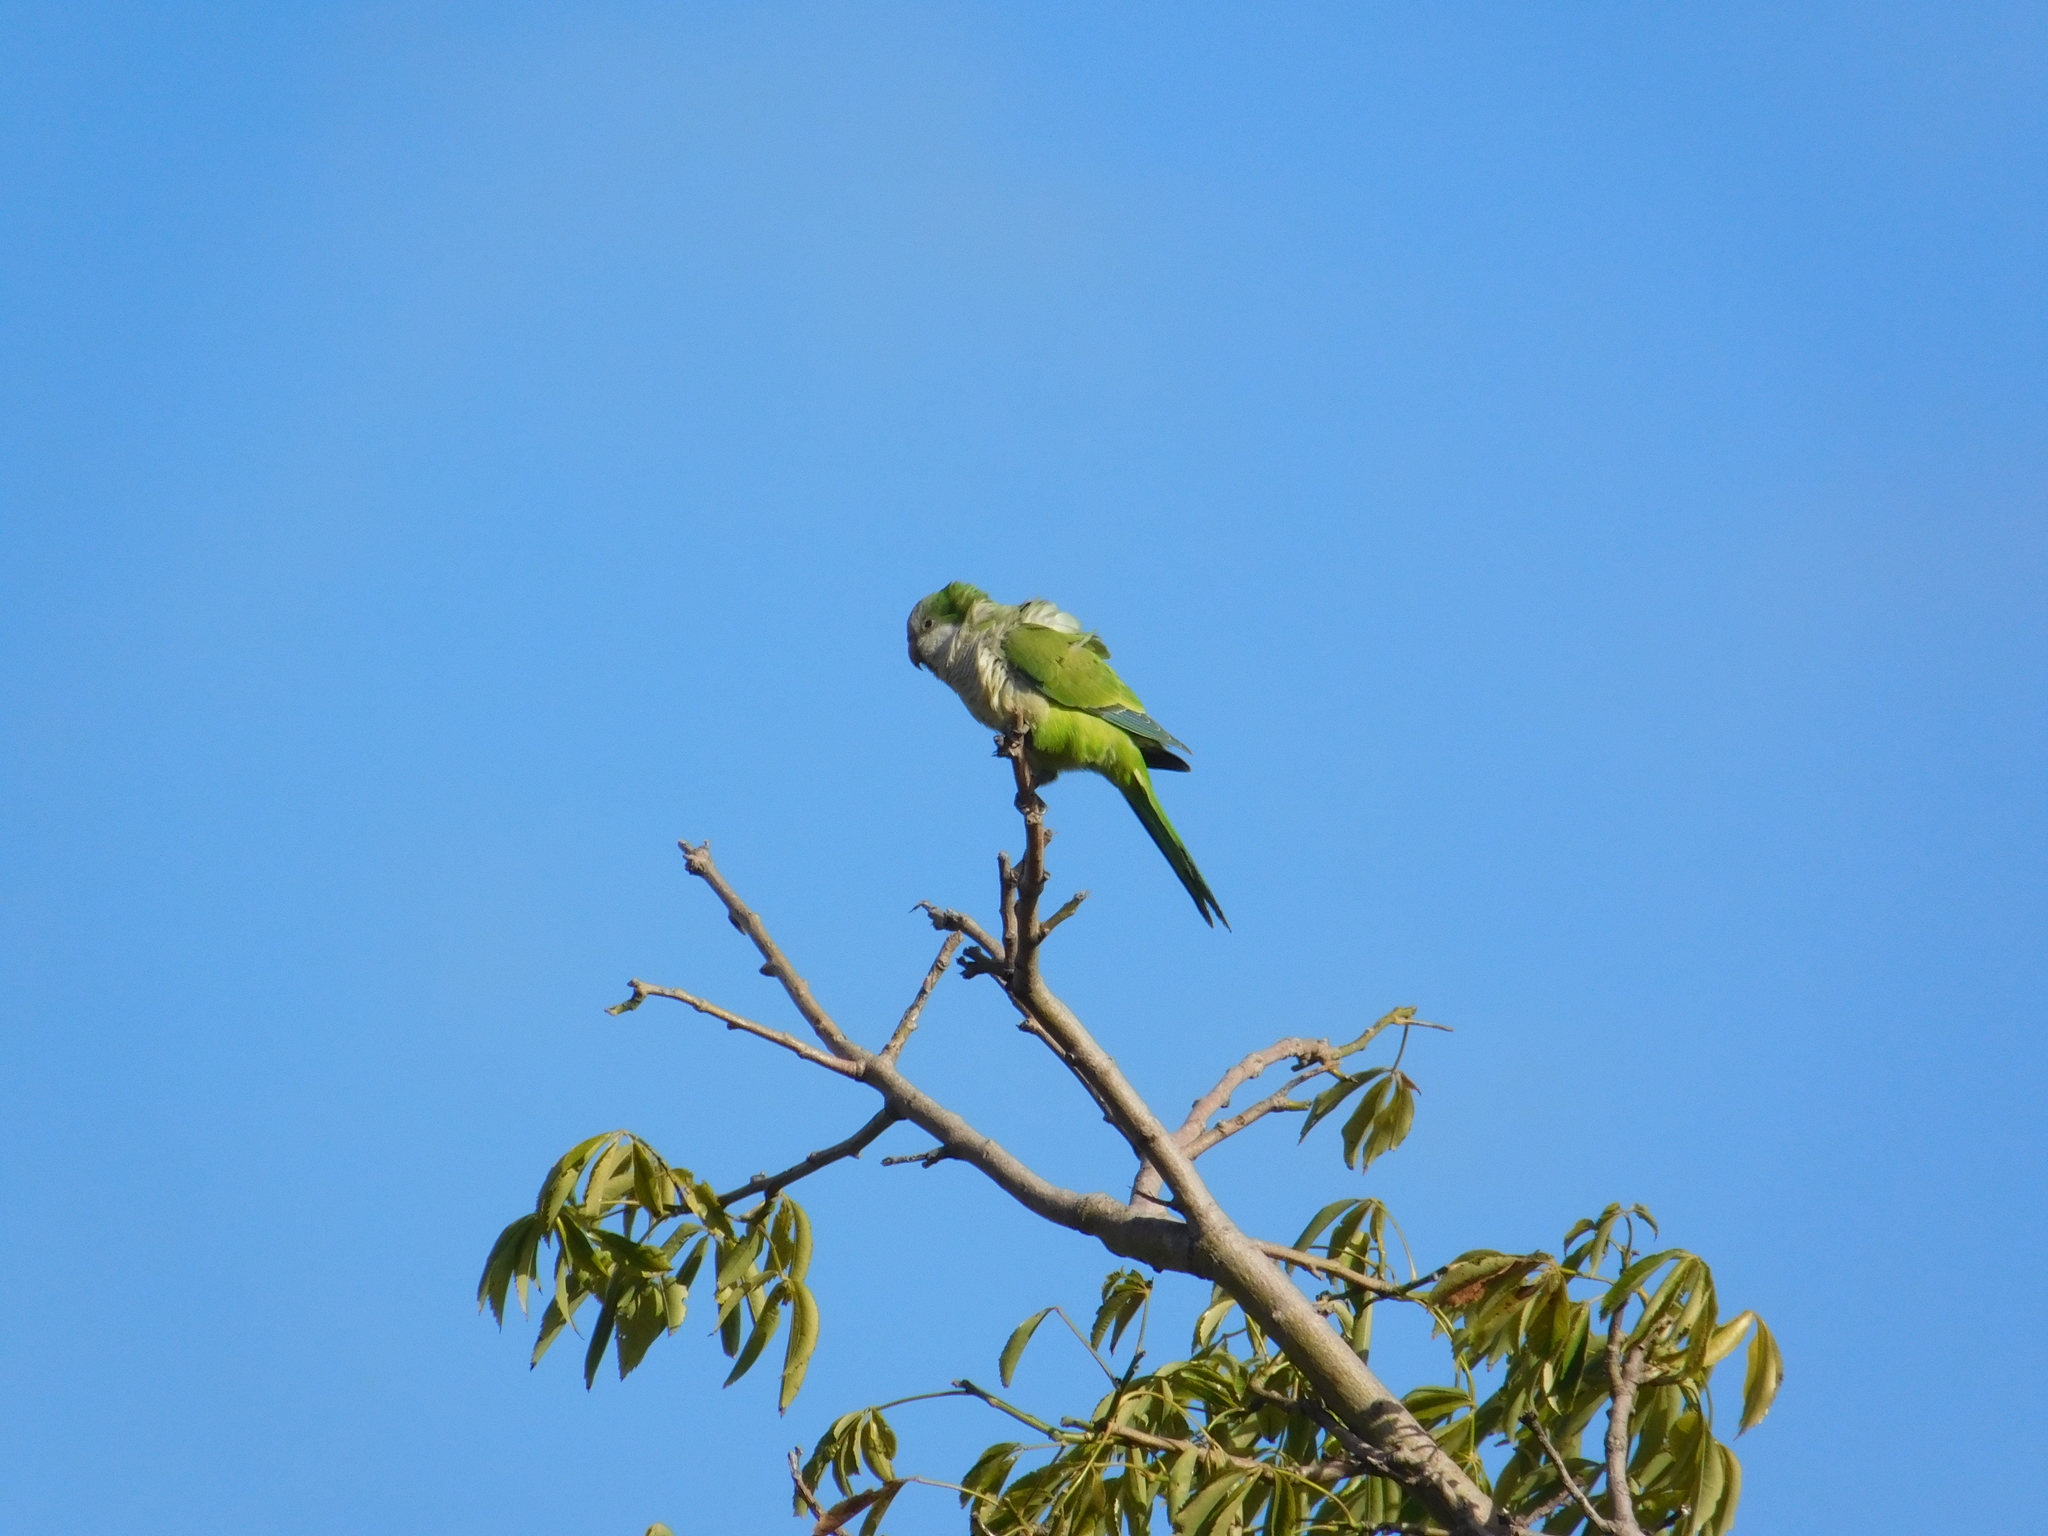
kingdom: Animalia
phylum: Chordata
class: Aves
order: Psittaciformes
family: Psittacidae
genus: Myiopsitta
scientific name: Myiopsitta monachus
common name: Monk parakeet
